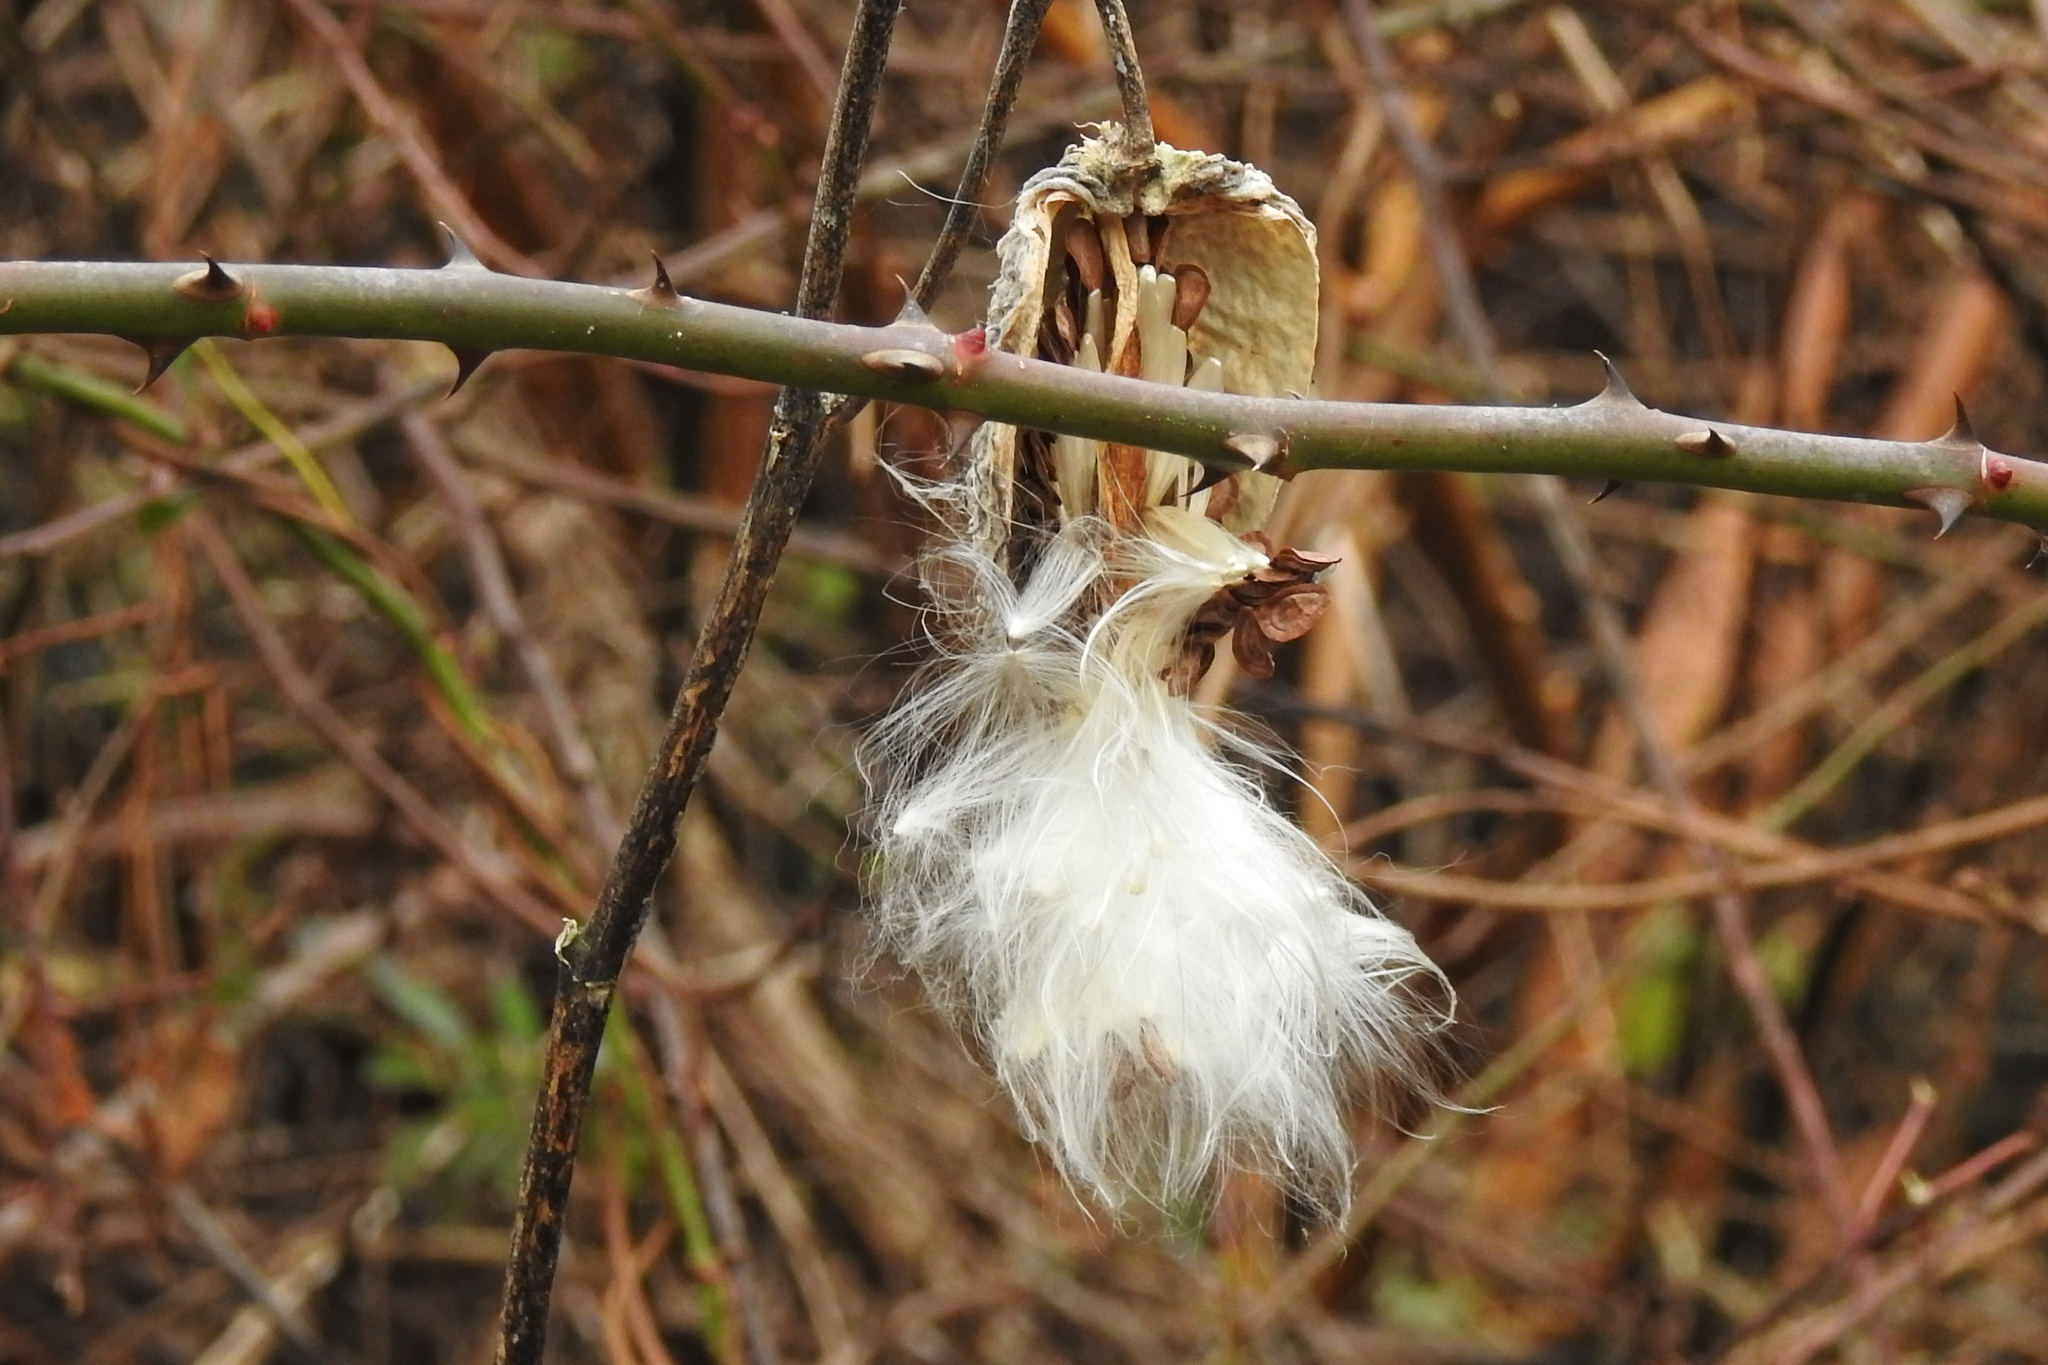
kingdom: Plantae
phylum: Tracheophyta
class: Magnoliopsida
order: Gentianales
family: Apocynaceae
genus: Asclepias
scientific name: Asclepias syriaca
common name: Common milkweed
